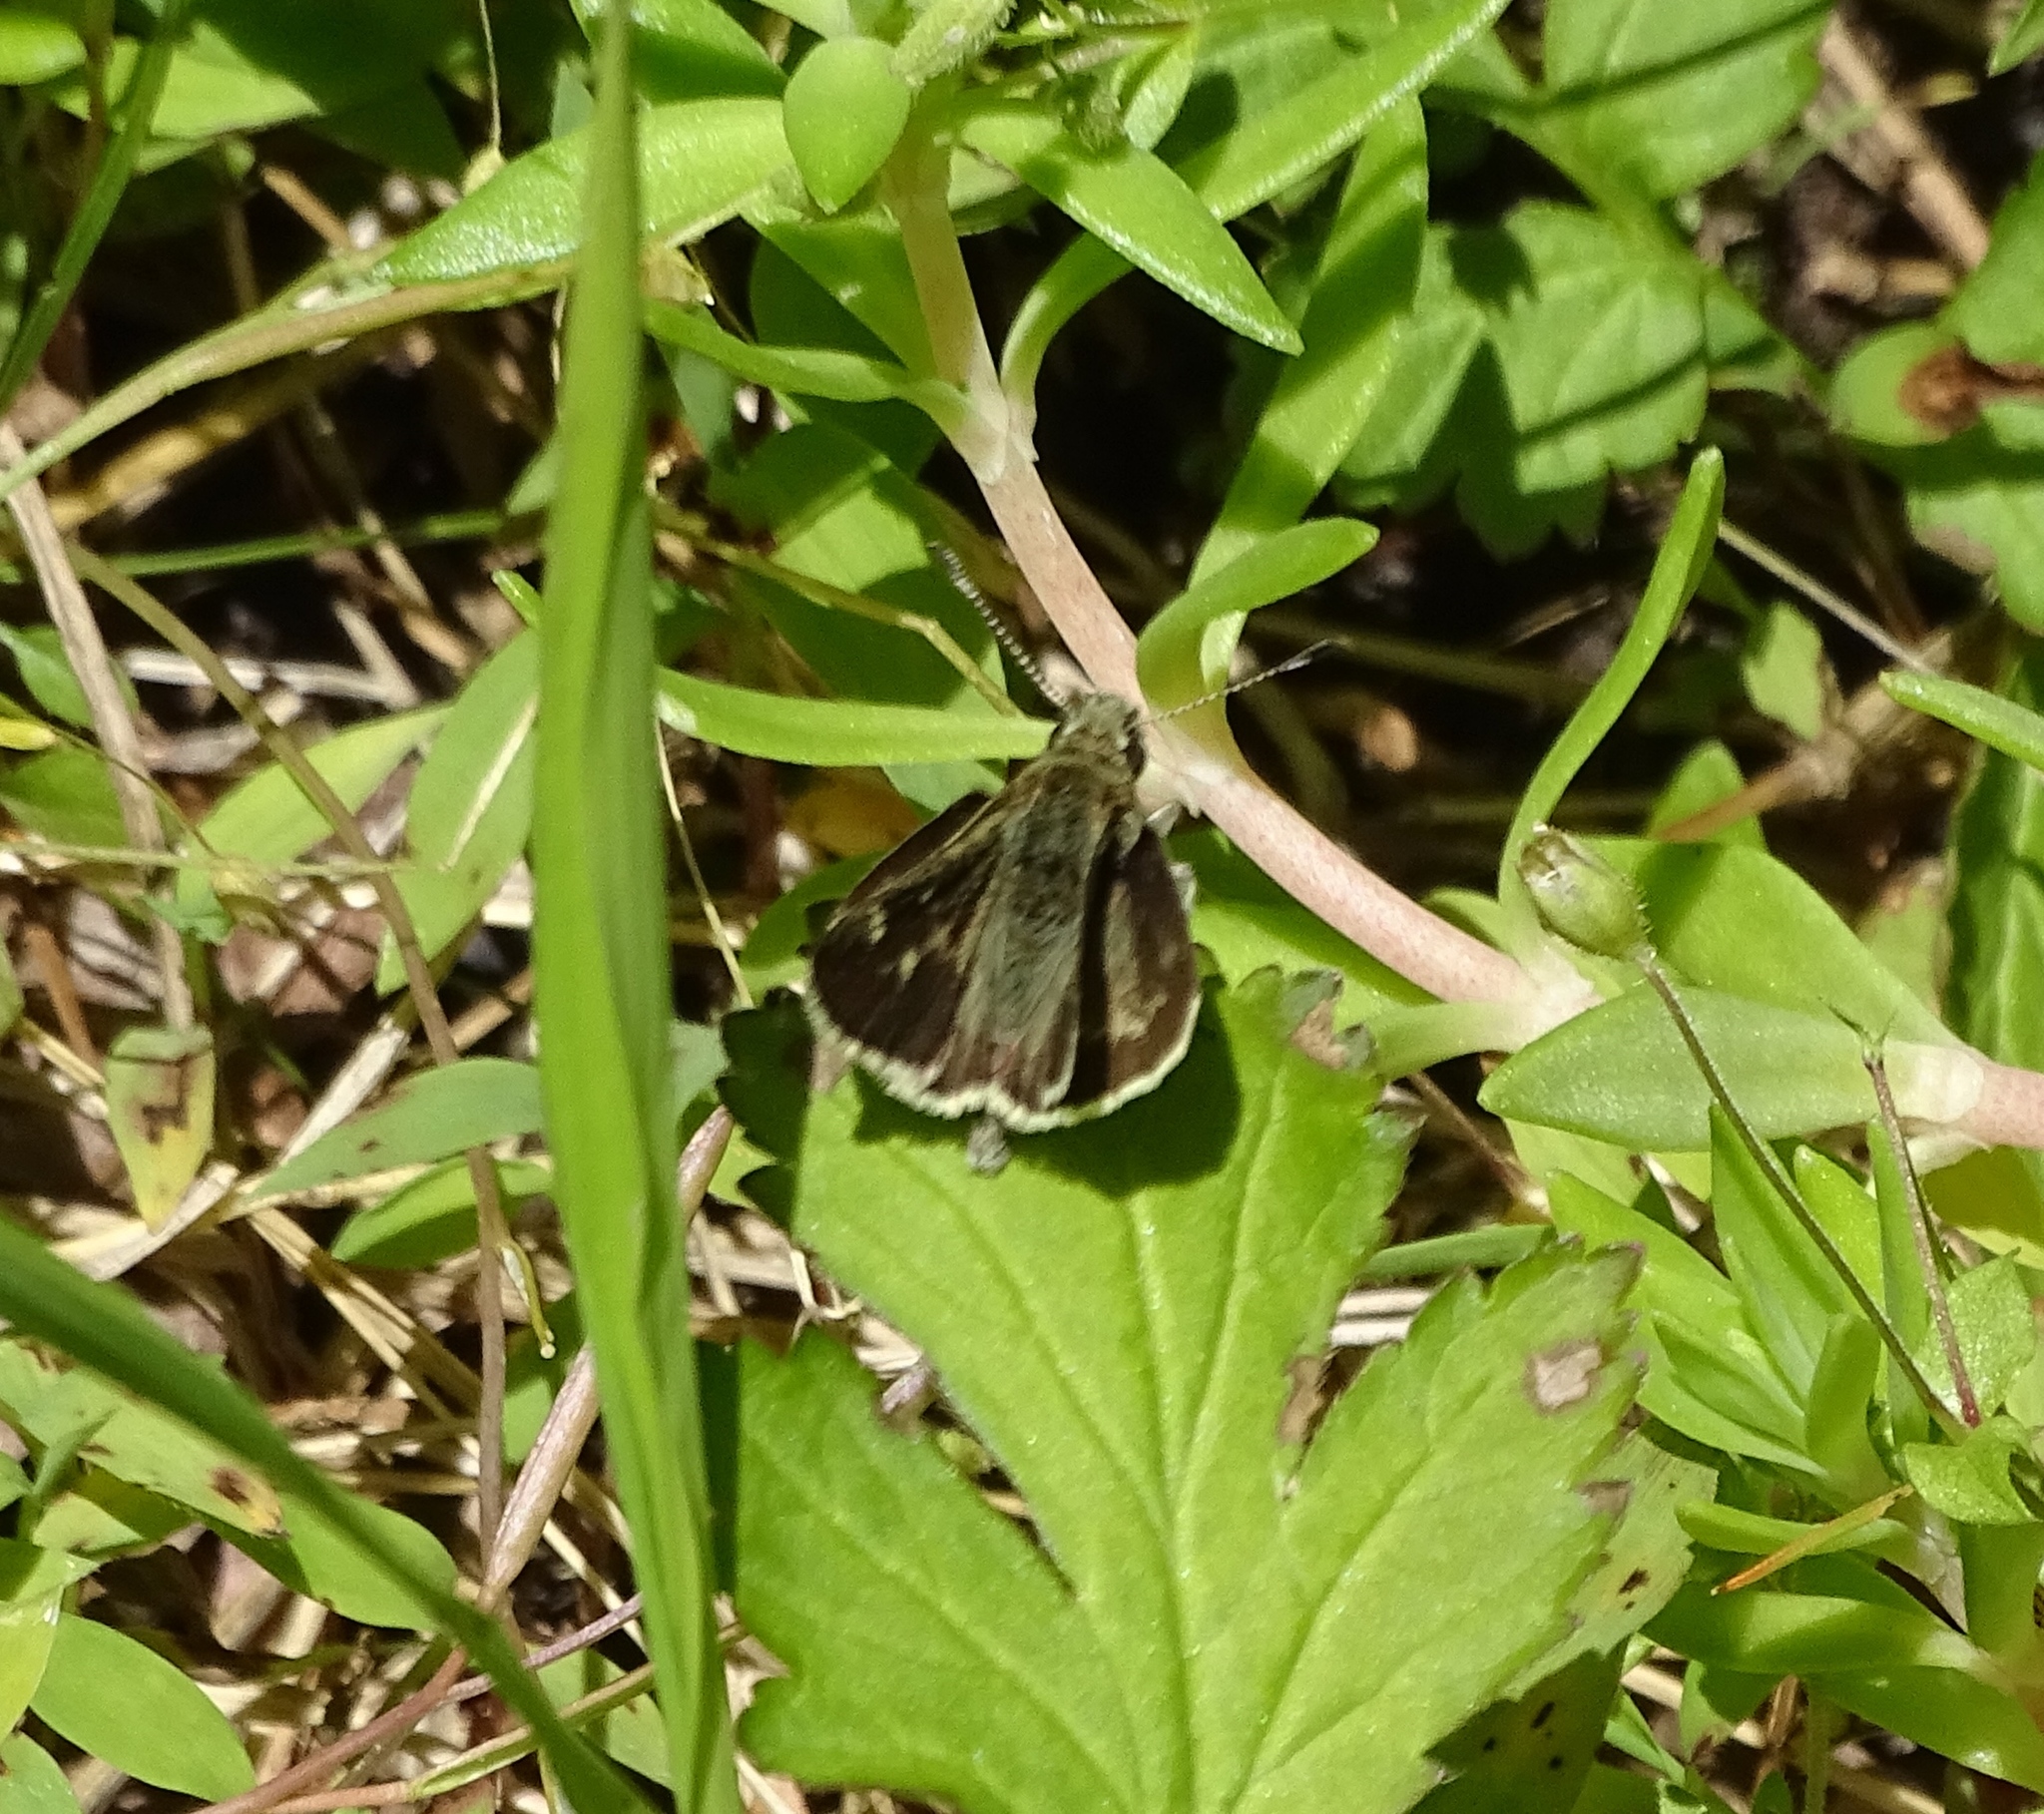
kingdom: Animalia
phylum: Arthropoda
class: Insecta
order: Lepidoptera
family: Hesperiidae
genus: Mastor
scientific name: Mastor hegon
